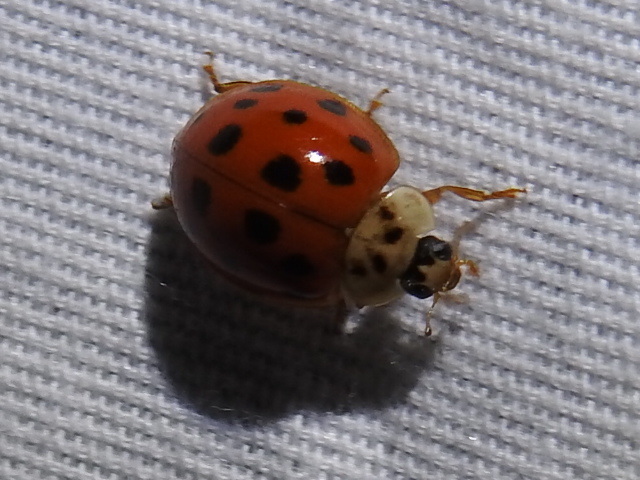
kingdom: Animalia
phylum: Arthropoda
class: Insecta
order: Coleoptera
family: Coccinellidae
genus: Harmonia
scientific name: Harmonia axyridis
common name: Harlequin ladybird
